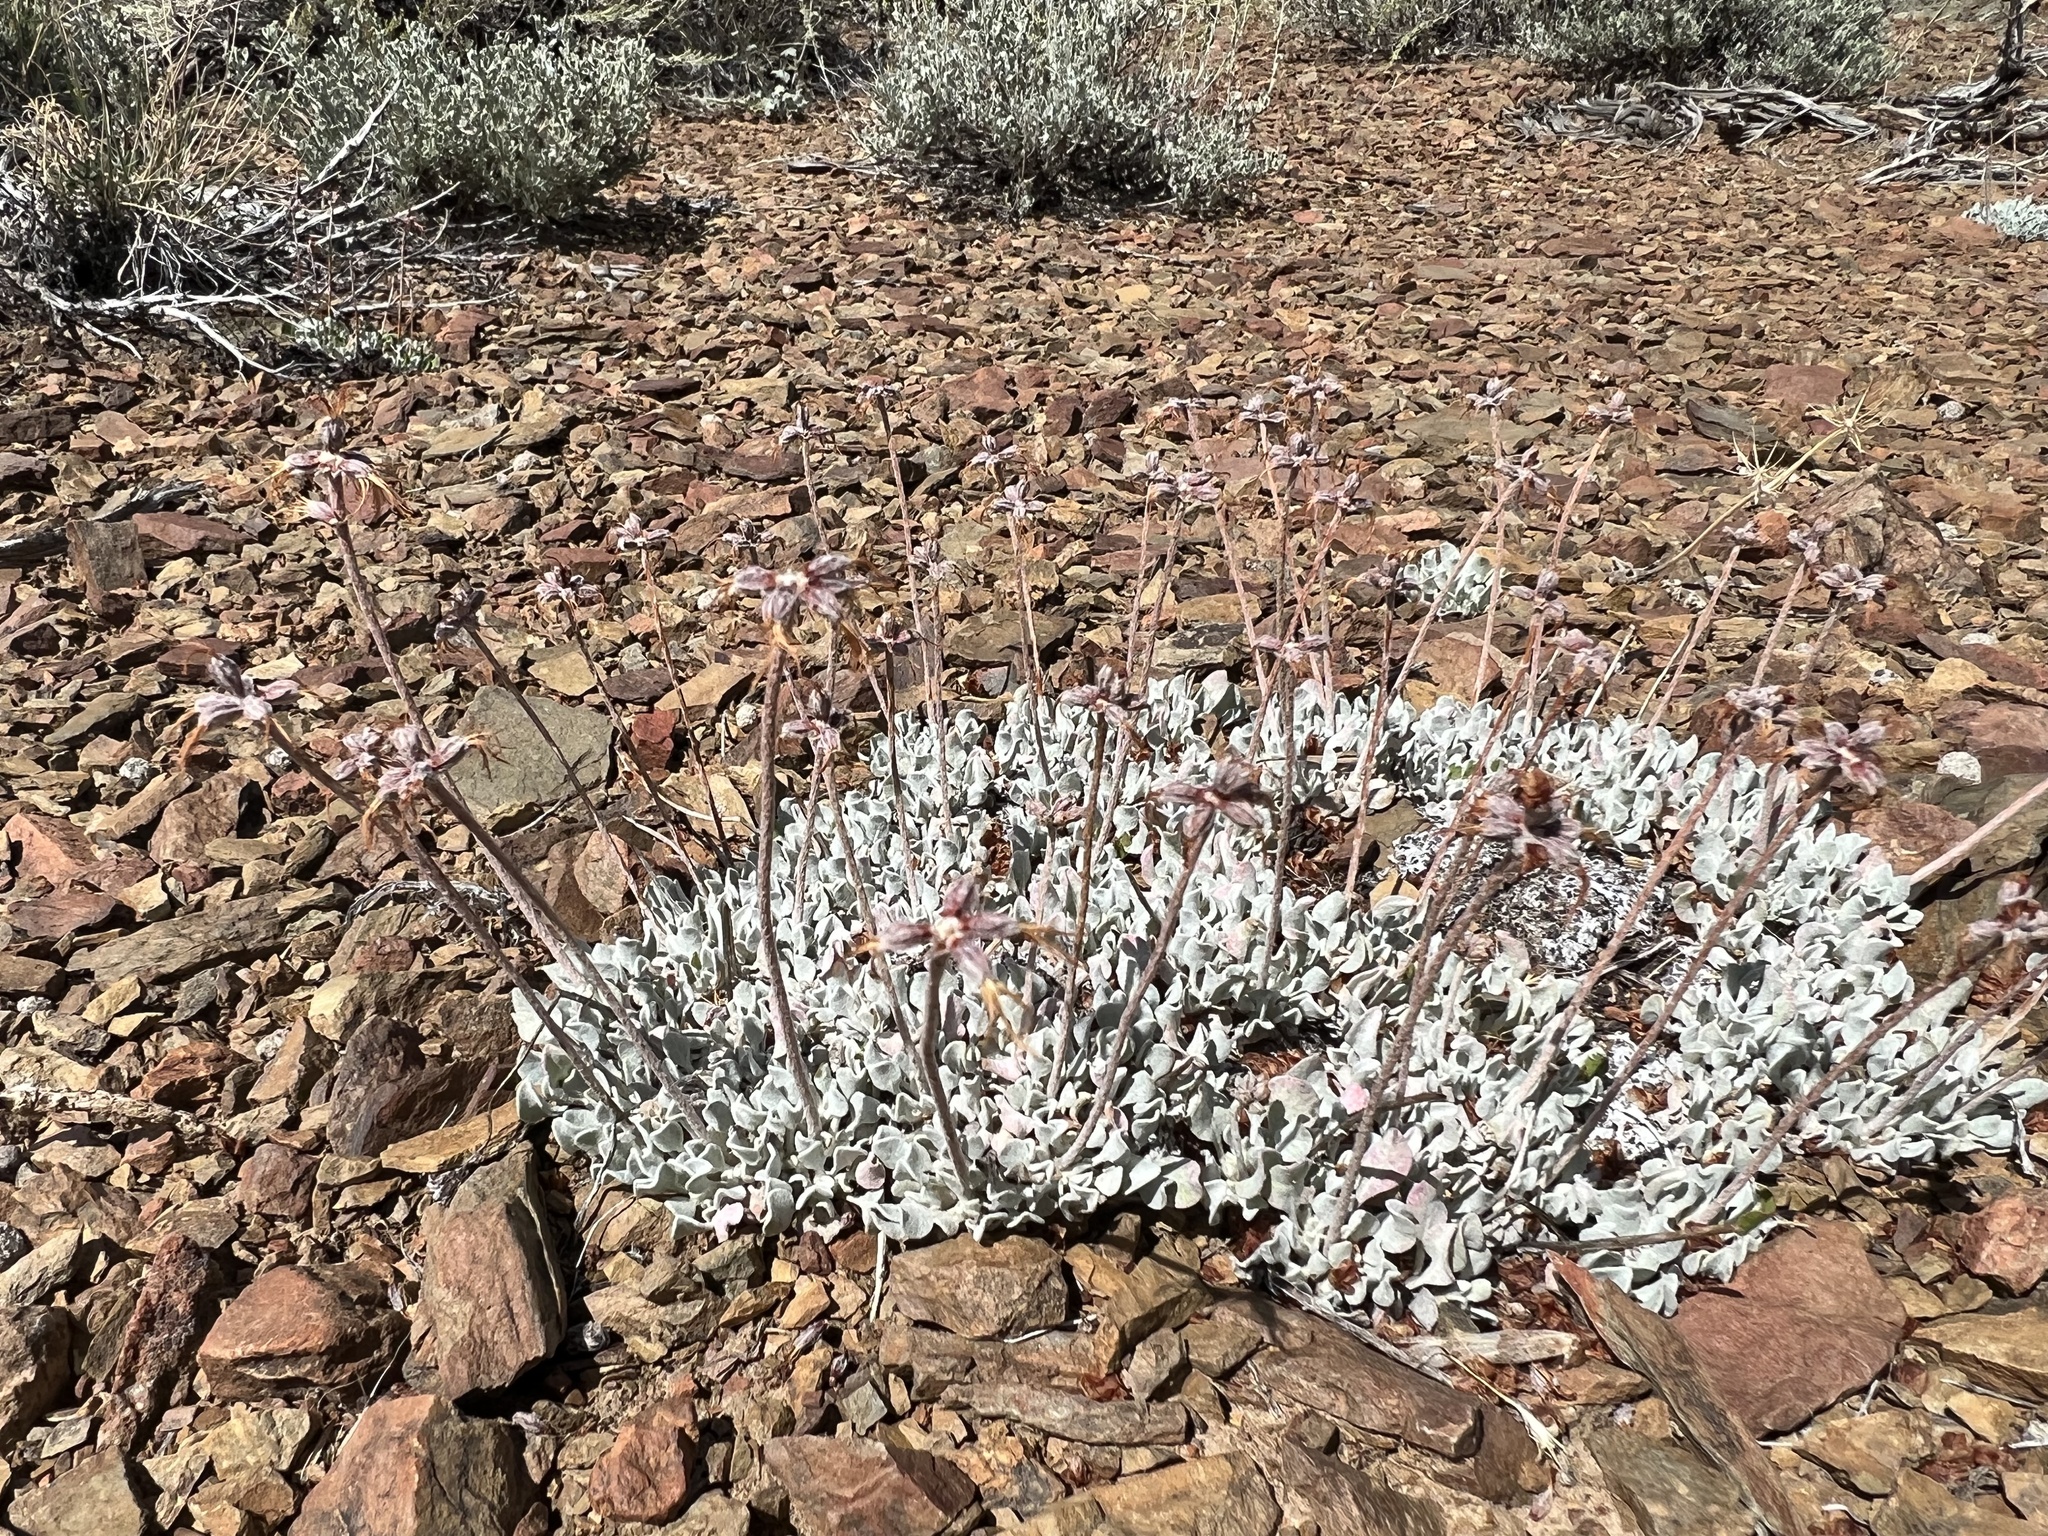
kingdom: Plantae
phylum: Tracheophyta
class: Magnoliopsida
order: Caryophyllales
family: Polygonaceae
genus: Eriogonum
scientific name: Eriogonum ovalifolium
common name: Cushion buckwheat
